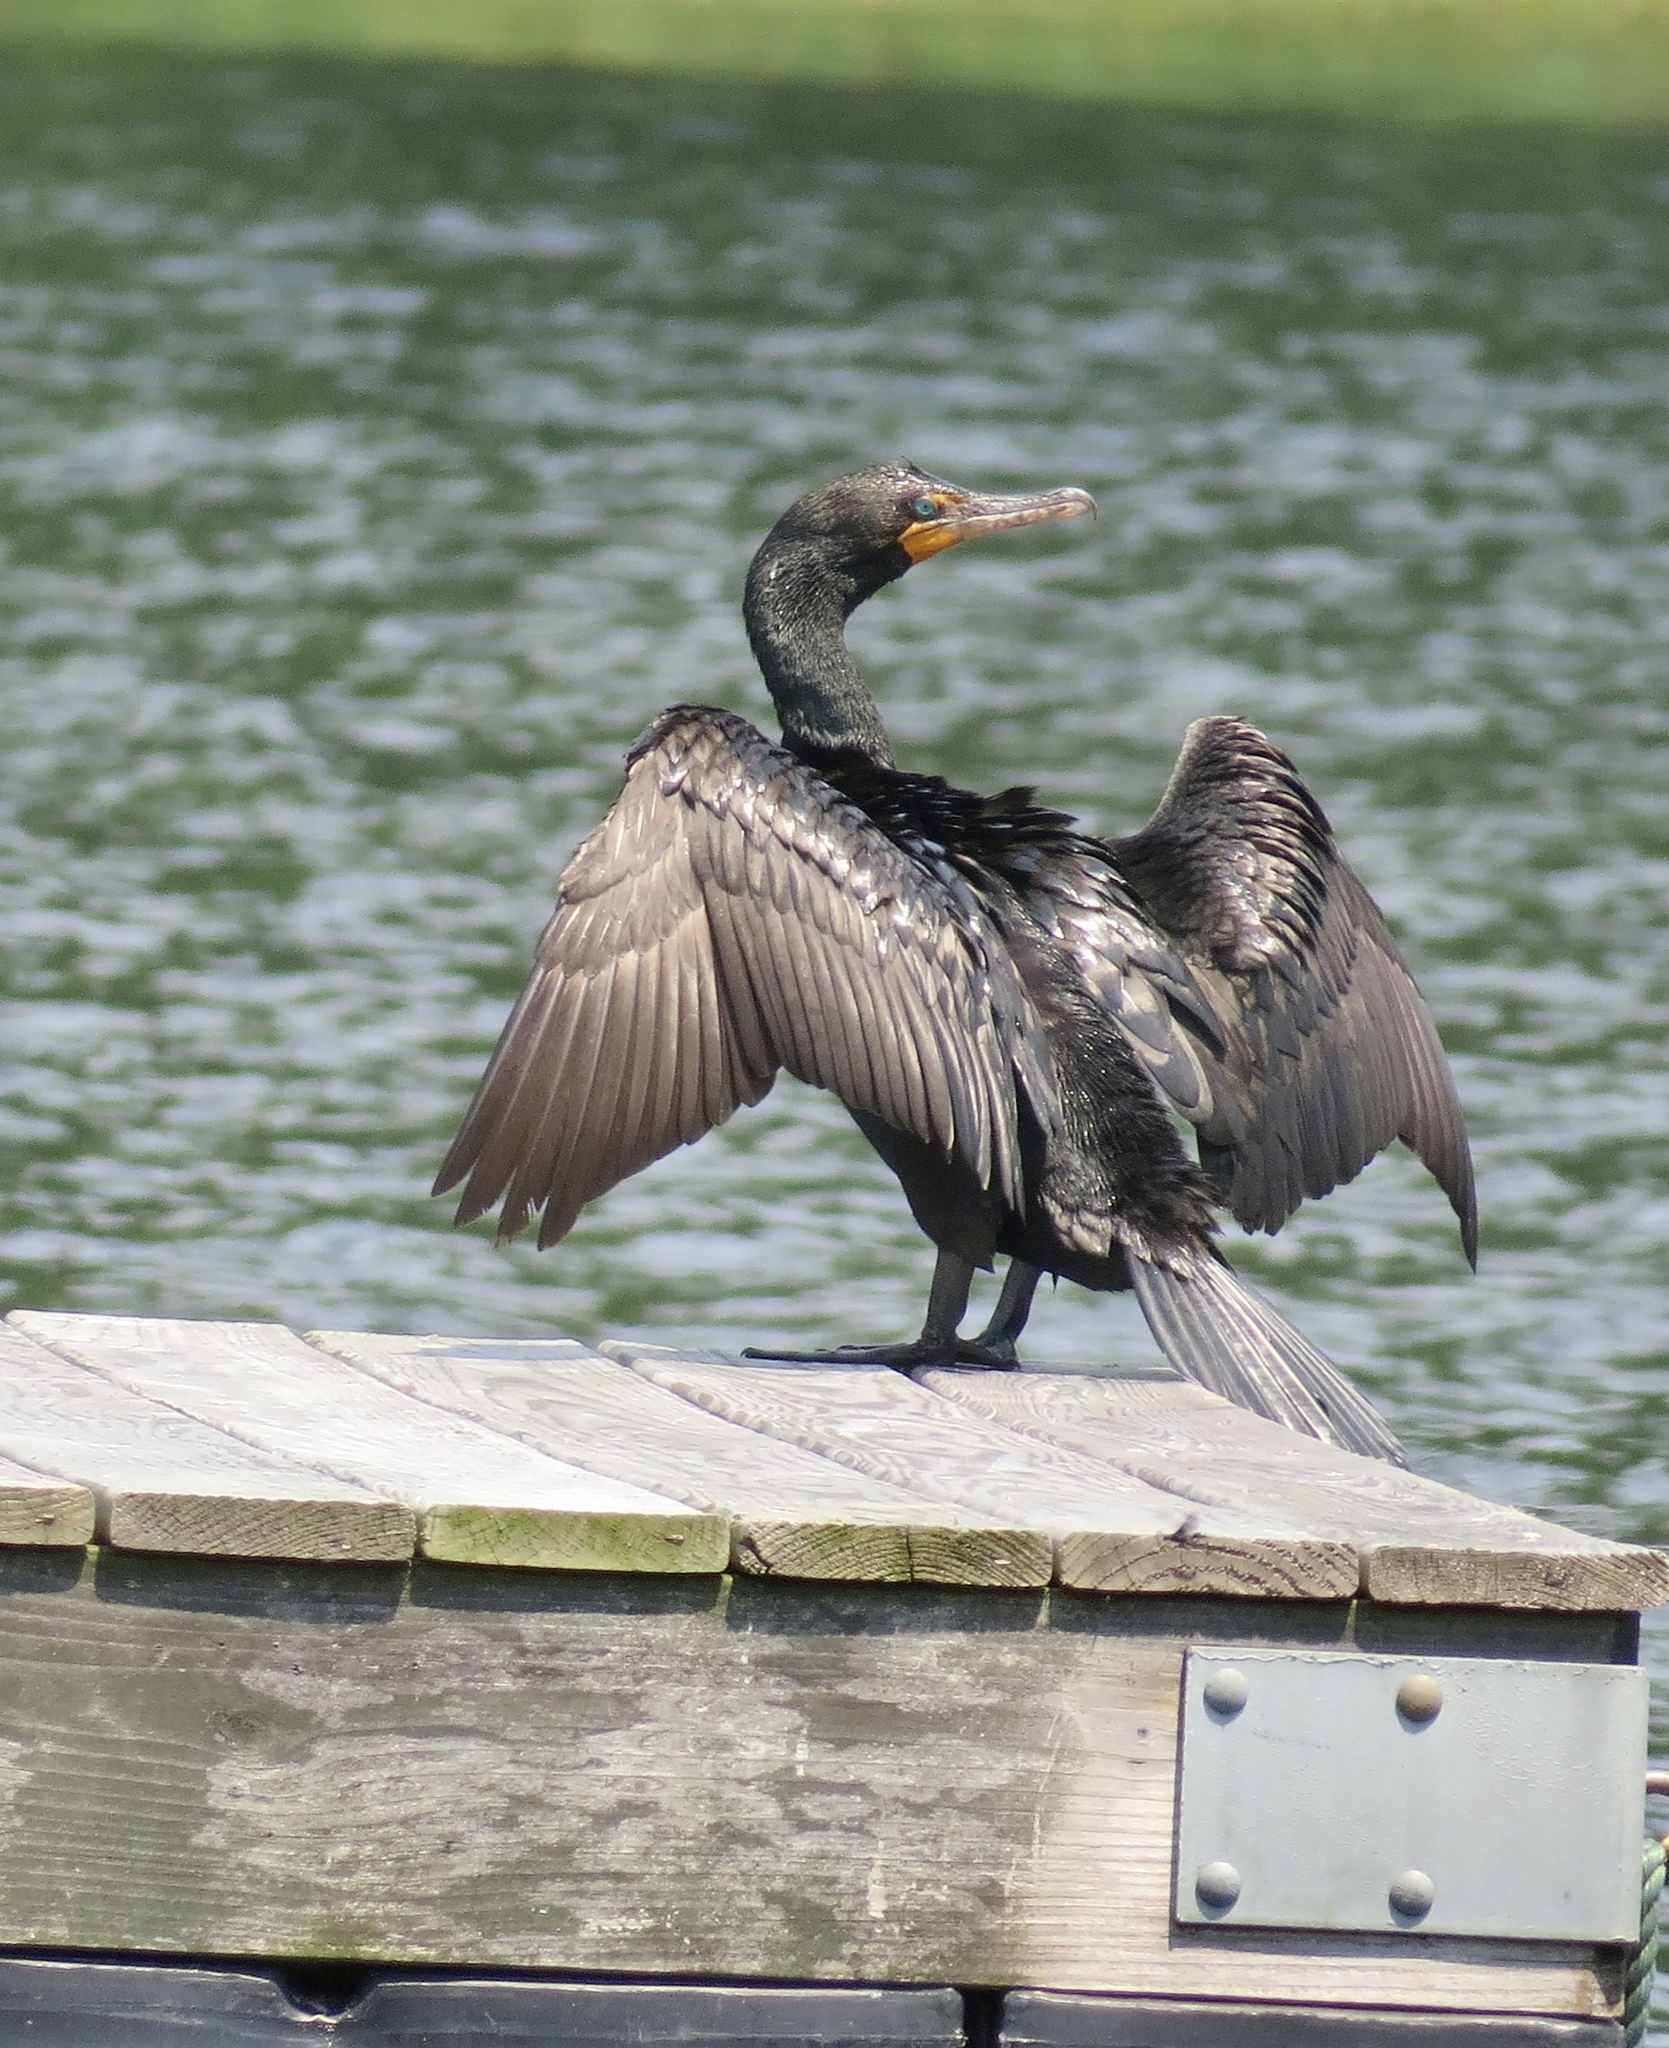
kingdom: Animalia
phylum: Chordata
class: Aves
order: Suliformes
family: Phalacrocoracidae
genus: Phalacrocorax
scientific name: Phalacrocorax auritus
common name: Double-crested cormorant
